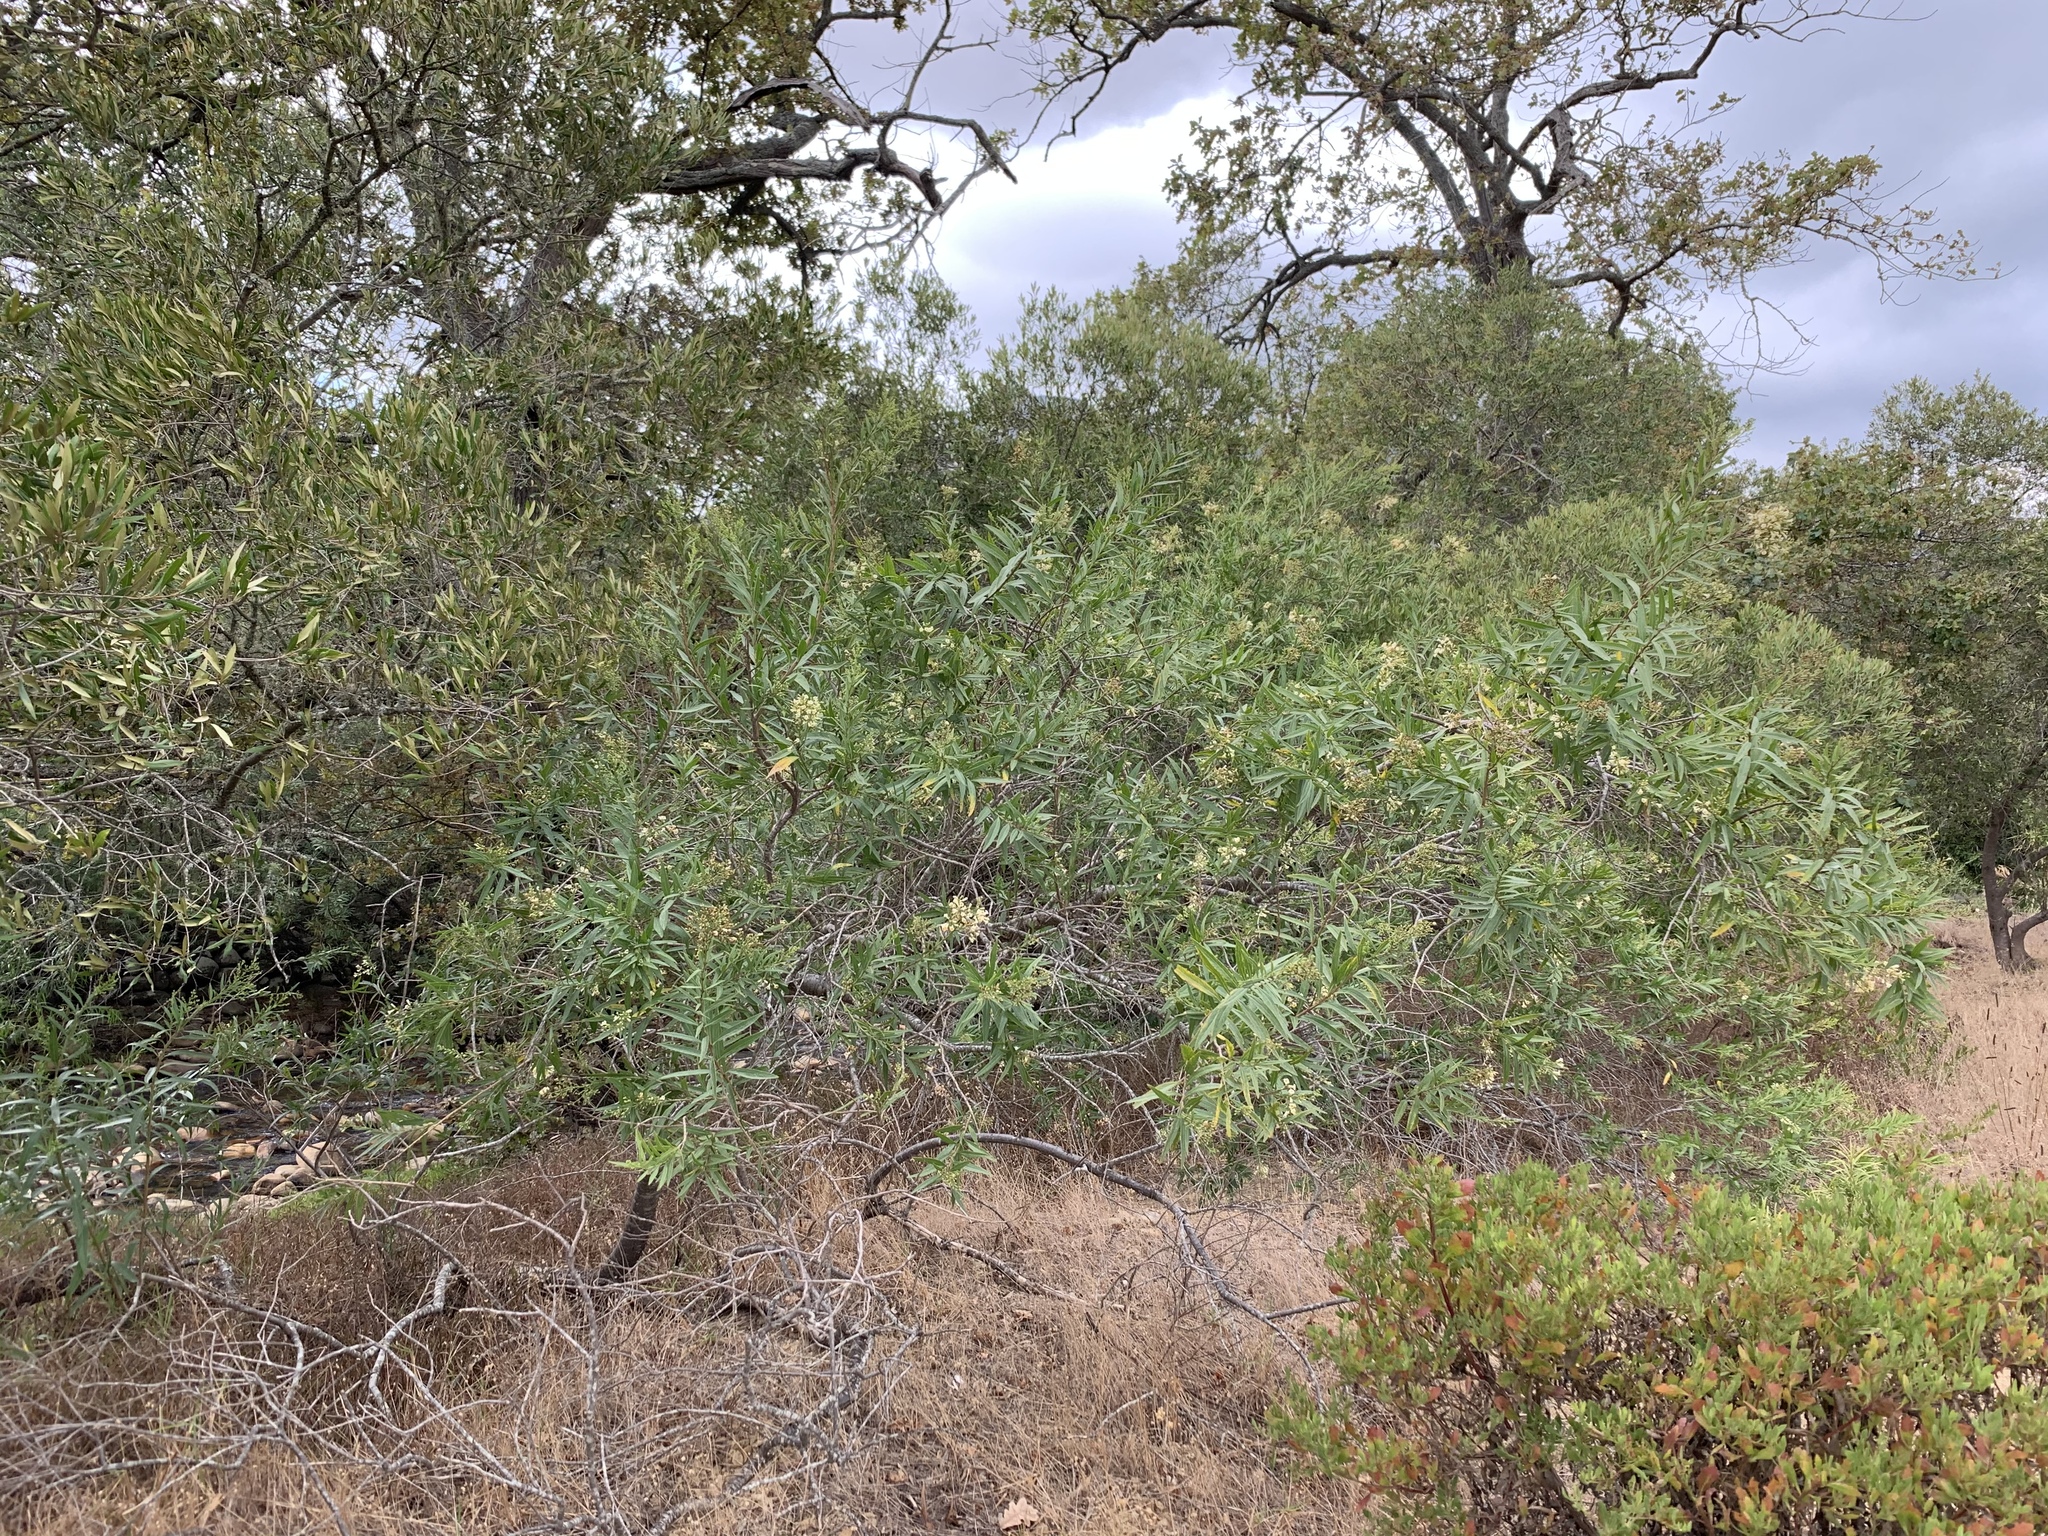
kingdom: Plantae
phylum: Tracheophyta
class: Magnoliopsida
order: Lamiales
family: Scrophulariaceae
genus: Freylinia
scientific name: Freylinia lanceolata
